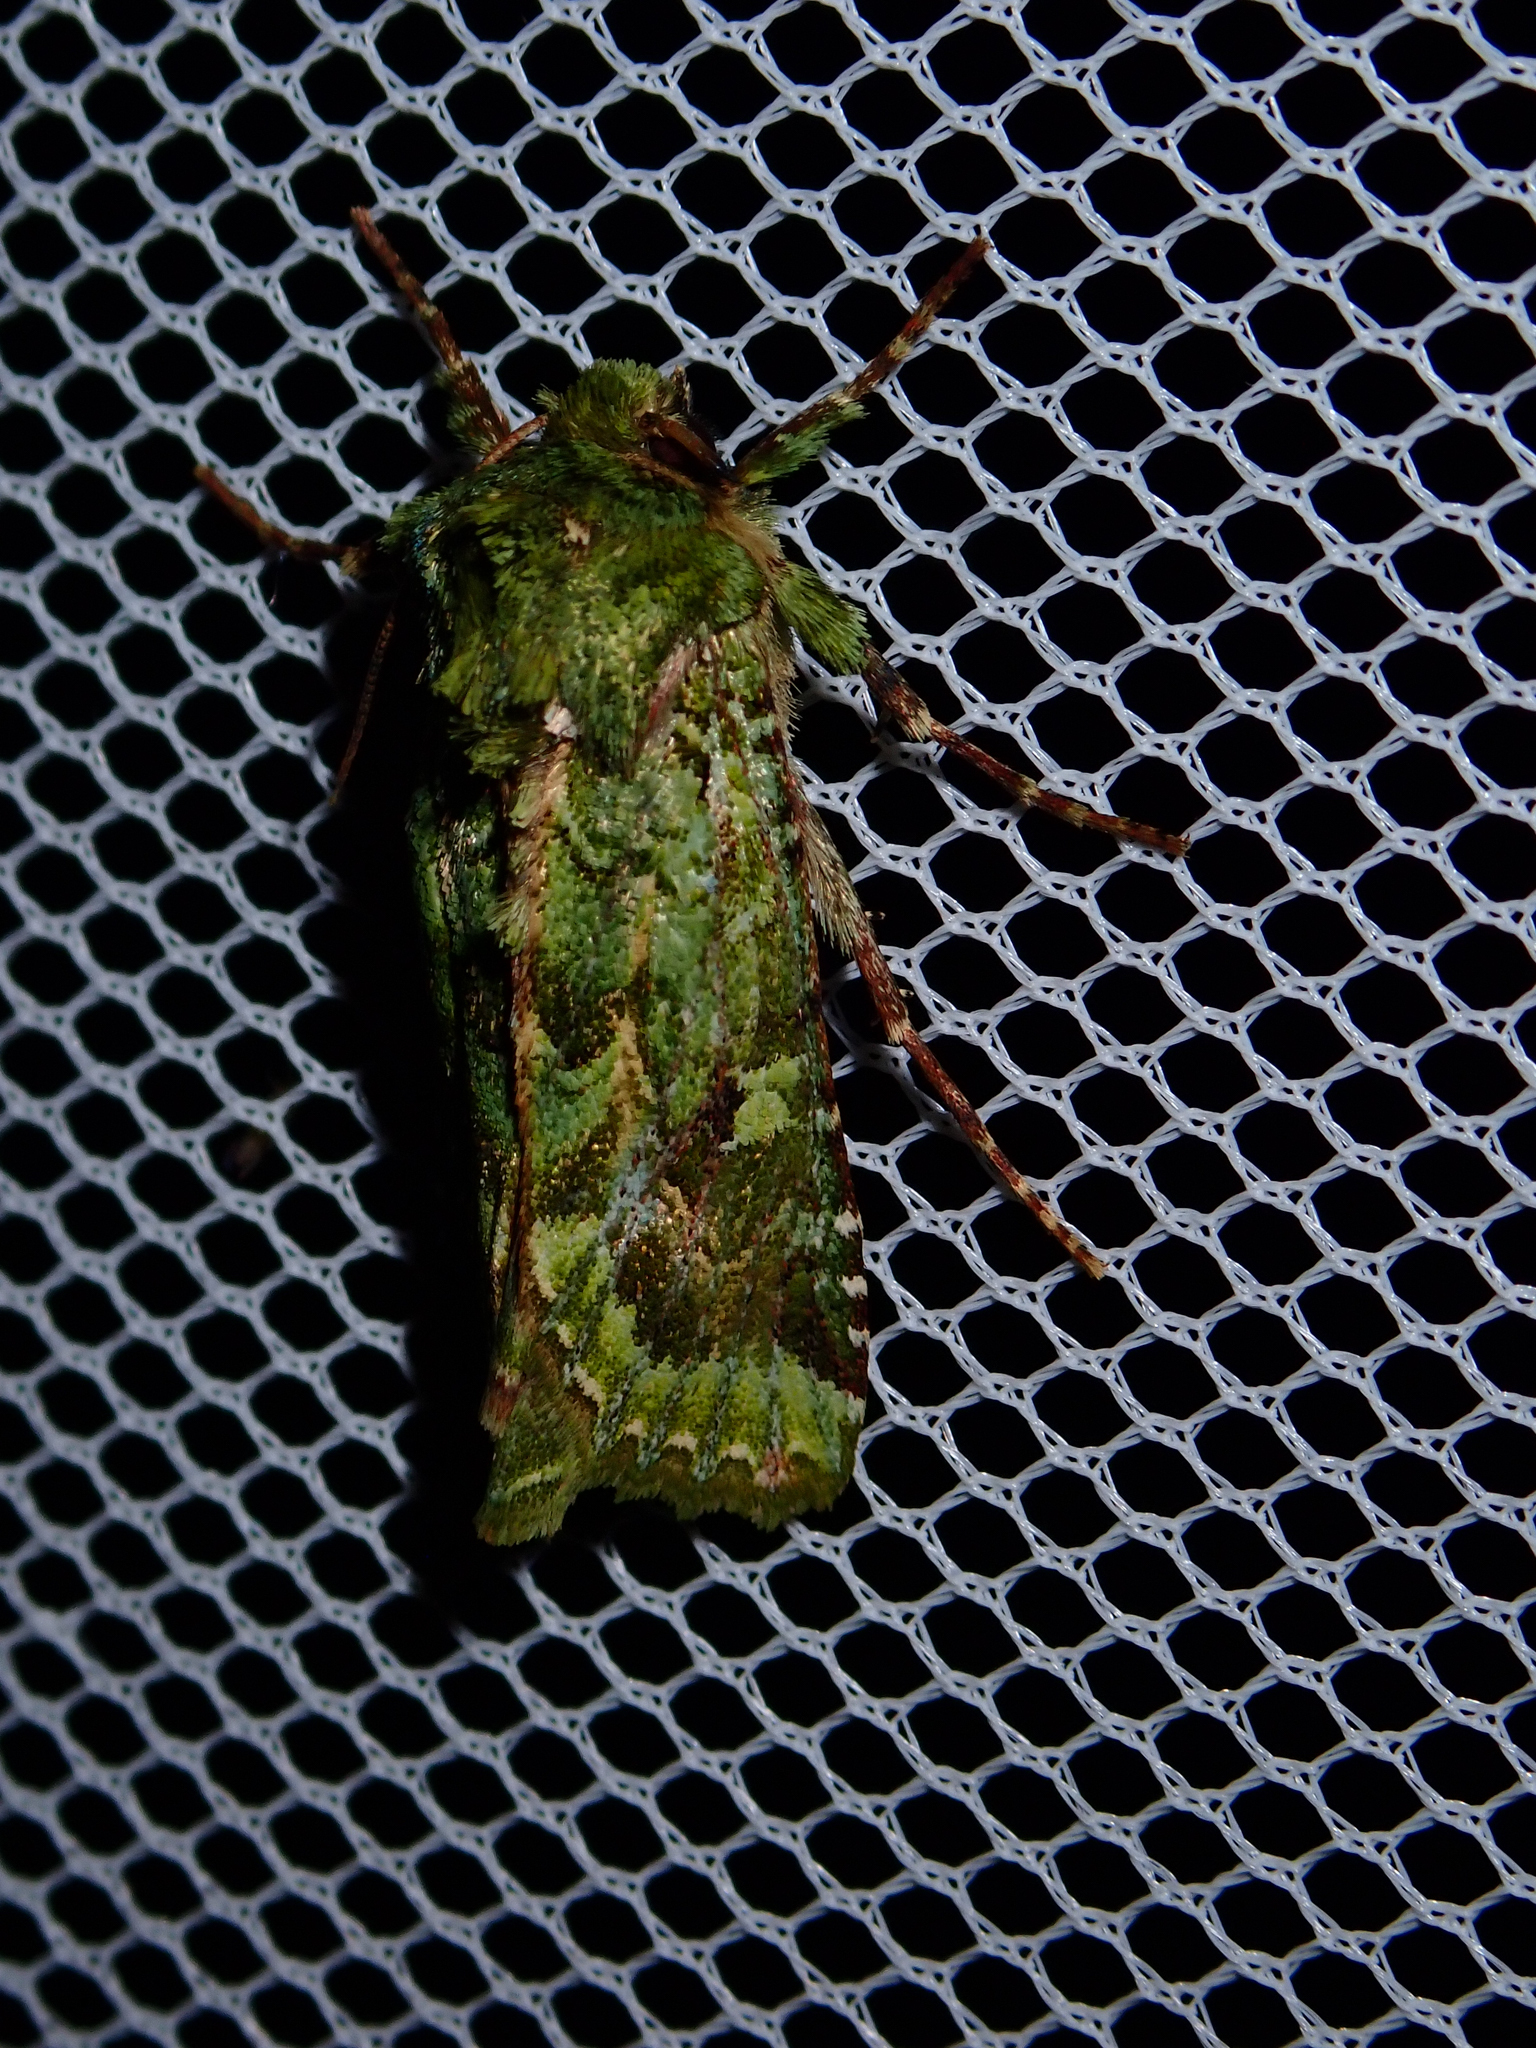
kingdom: Animalia
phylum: Arthropoda
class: Insecta
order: Lepidoptera
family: Noctuidae
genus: Feredayia
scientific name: Feredayia grammosa
